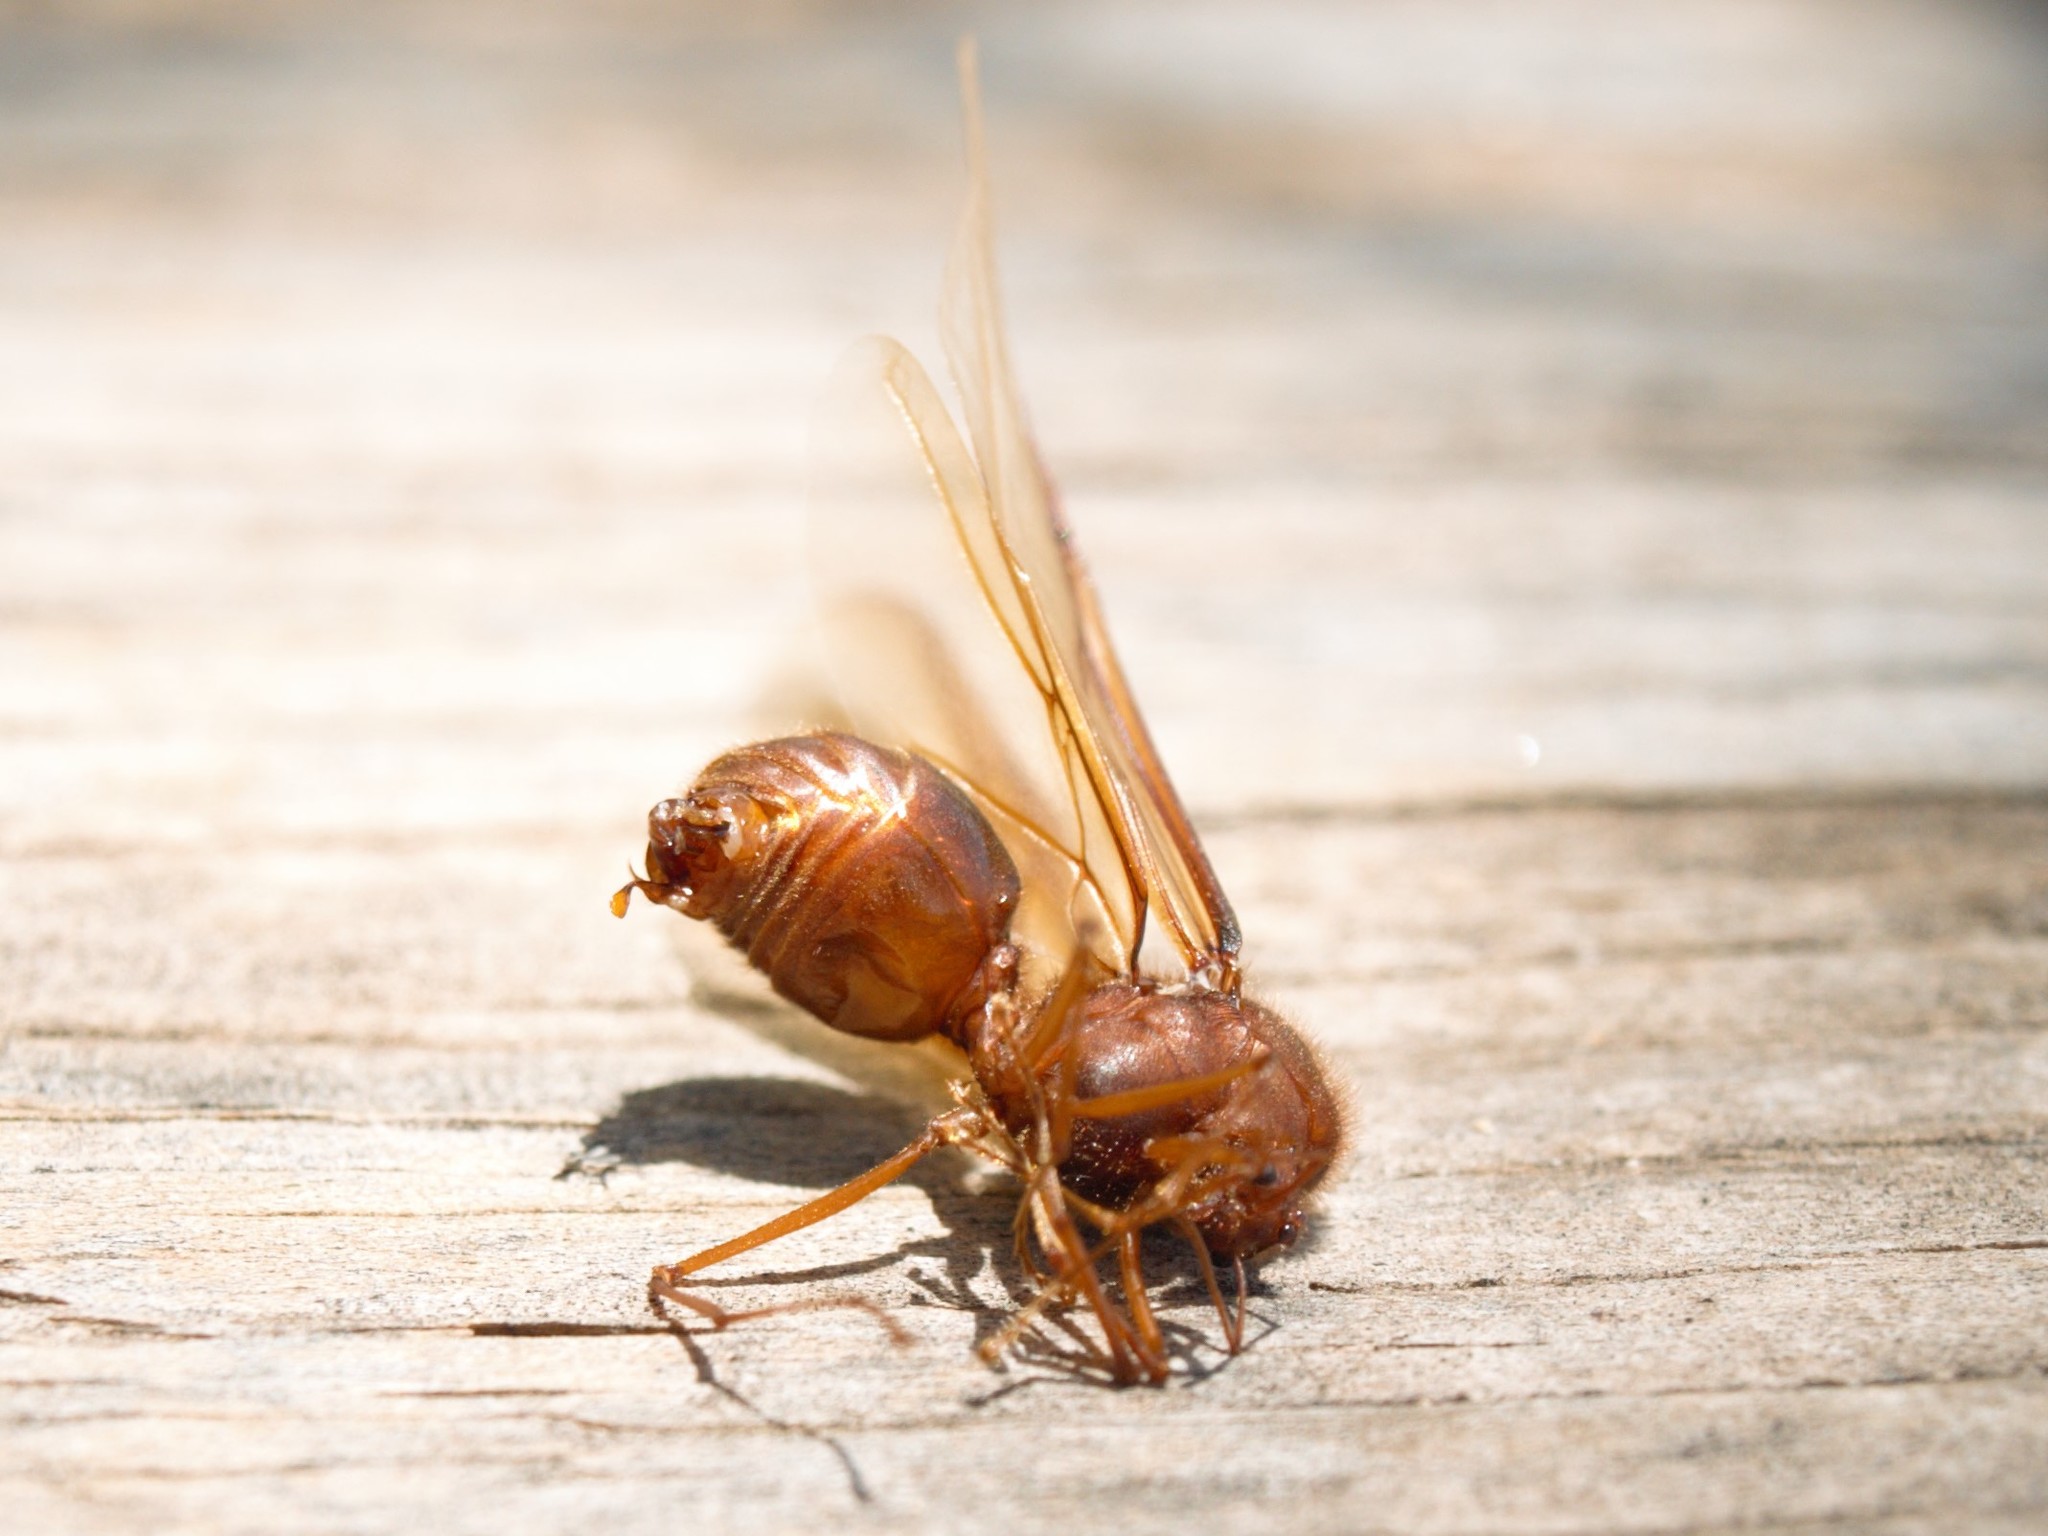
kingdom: Animalia
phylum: Arthropoda
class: Insecta
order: Hymenoptera
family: Formicidae
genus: Atta
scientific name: Atta mexicana
